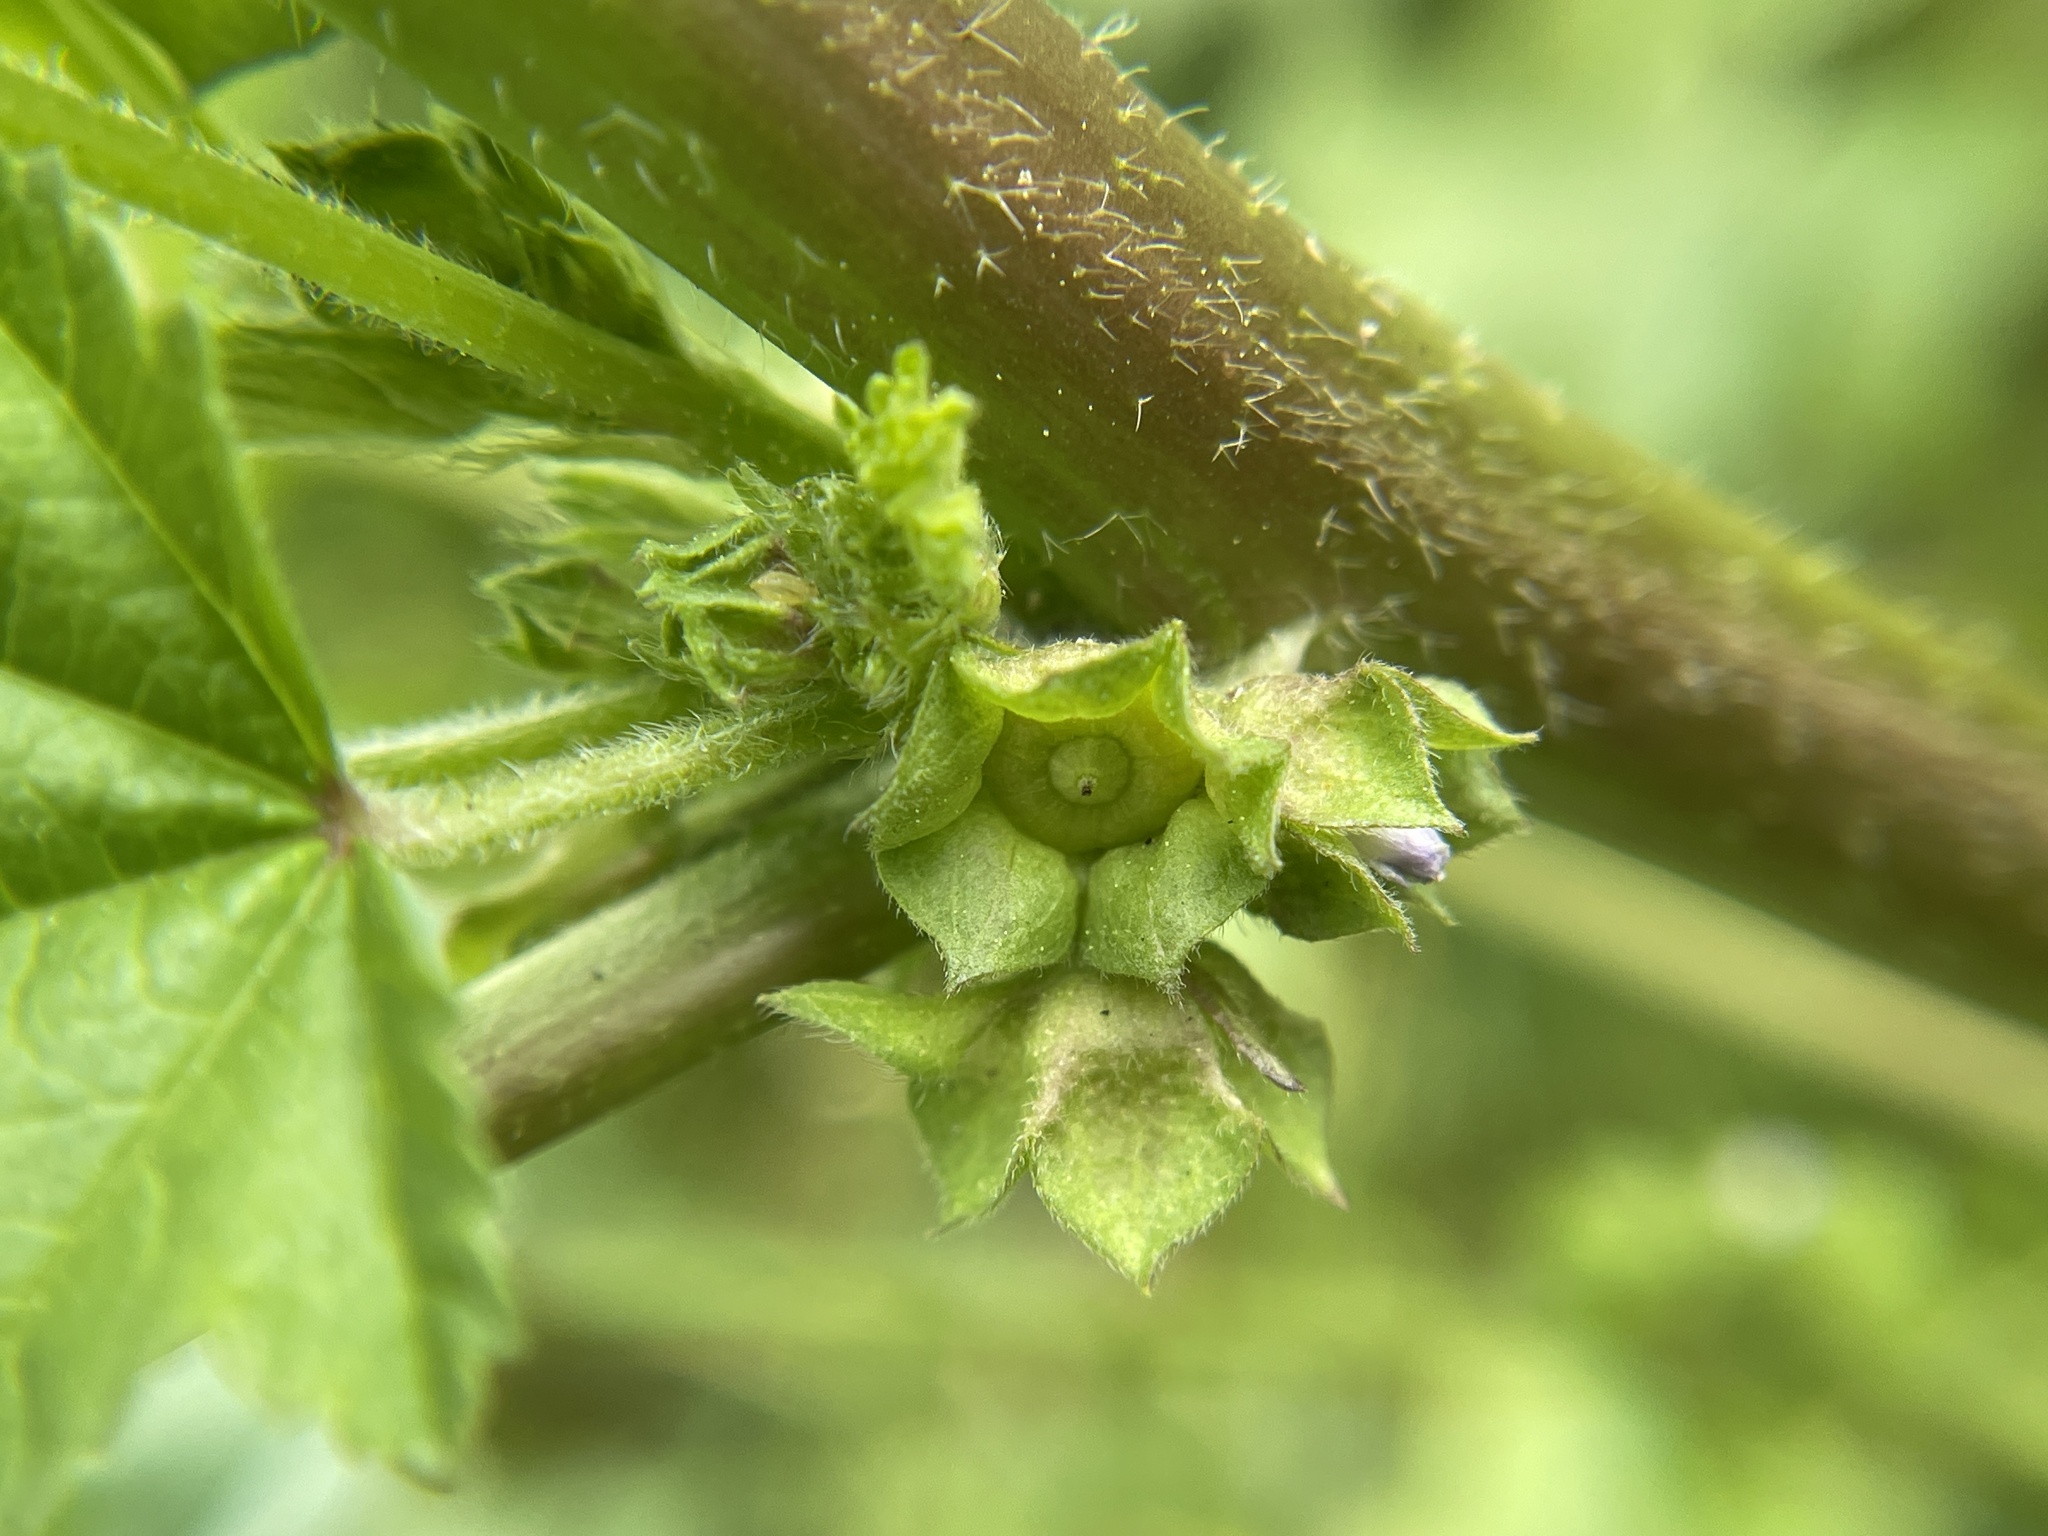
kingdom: Plantae
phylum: Tracheophyta
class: Magnoliopsida
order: Malvales
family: Malvaceae
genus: Malva
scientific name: Malva parviflora
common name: Least mallow
